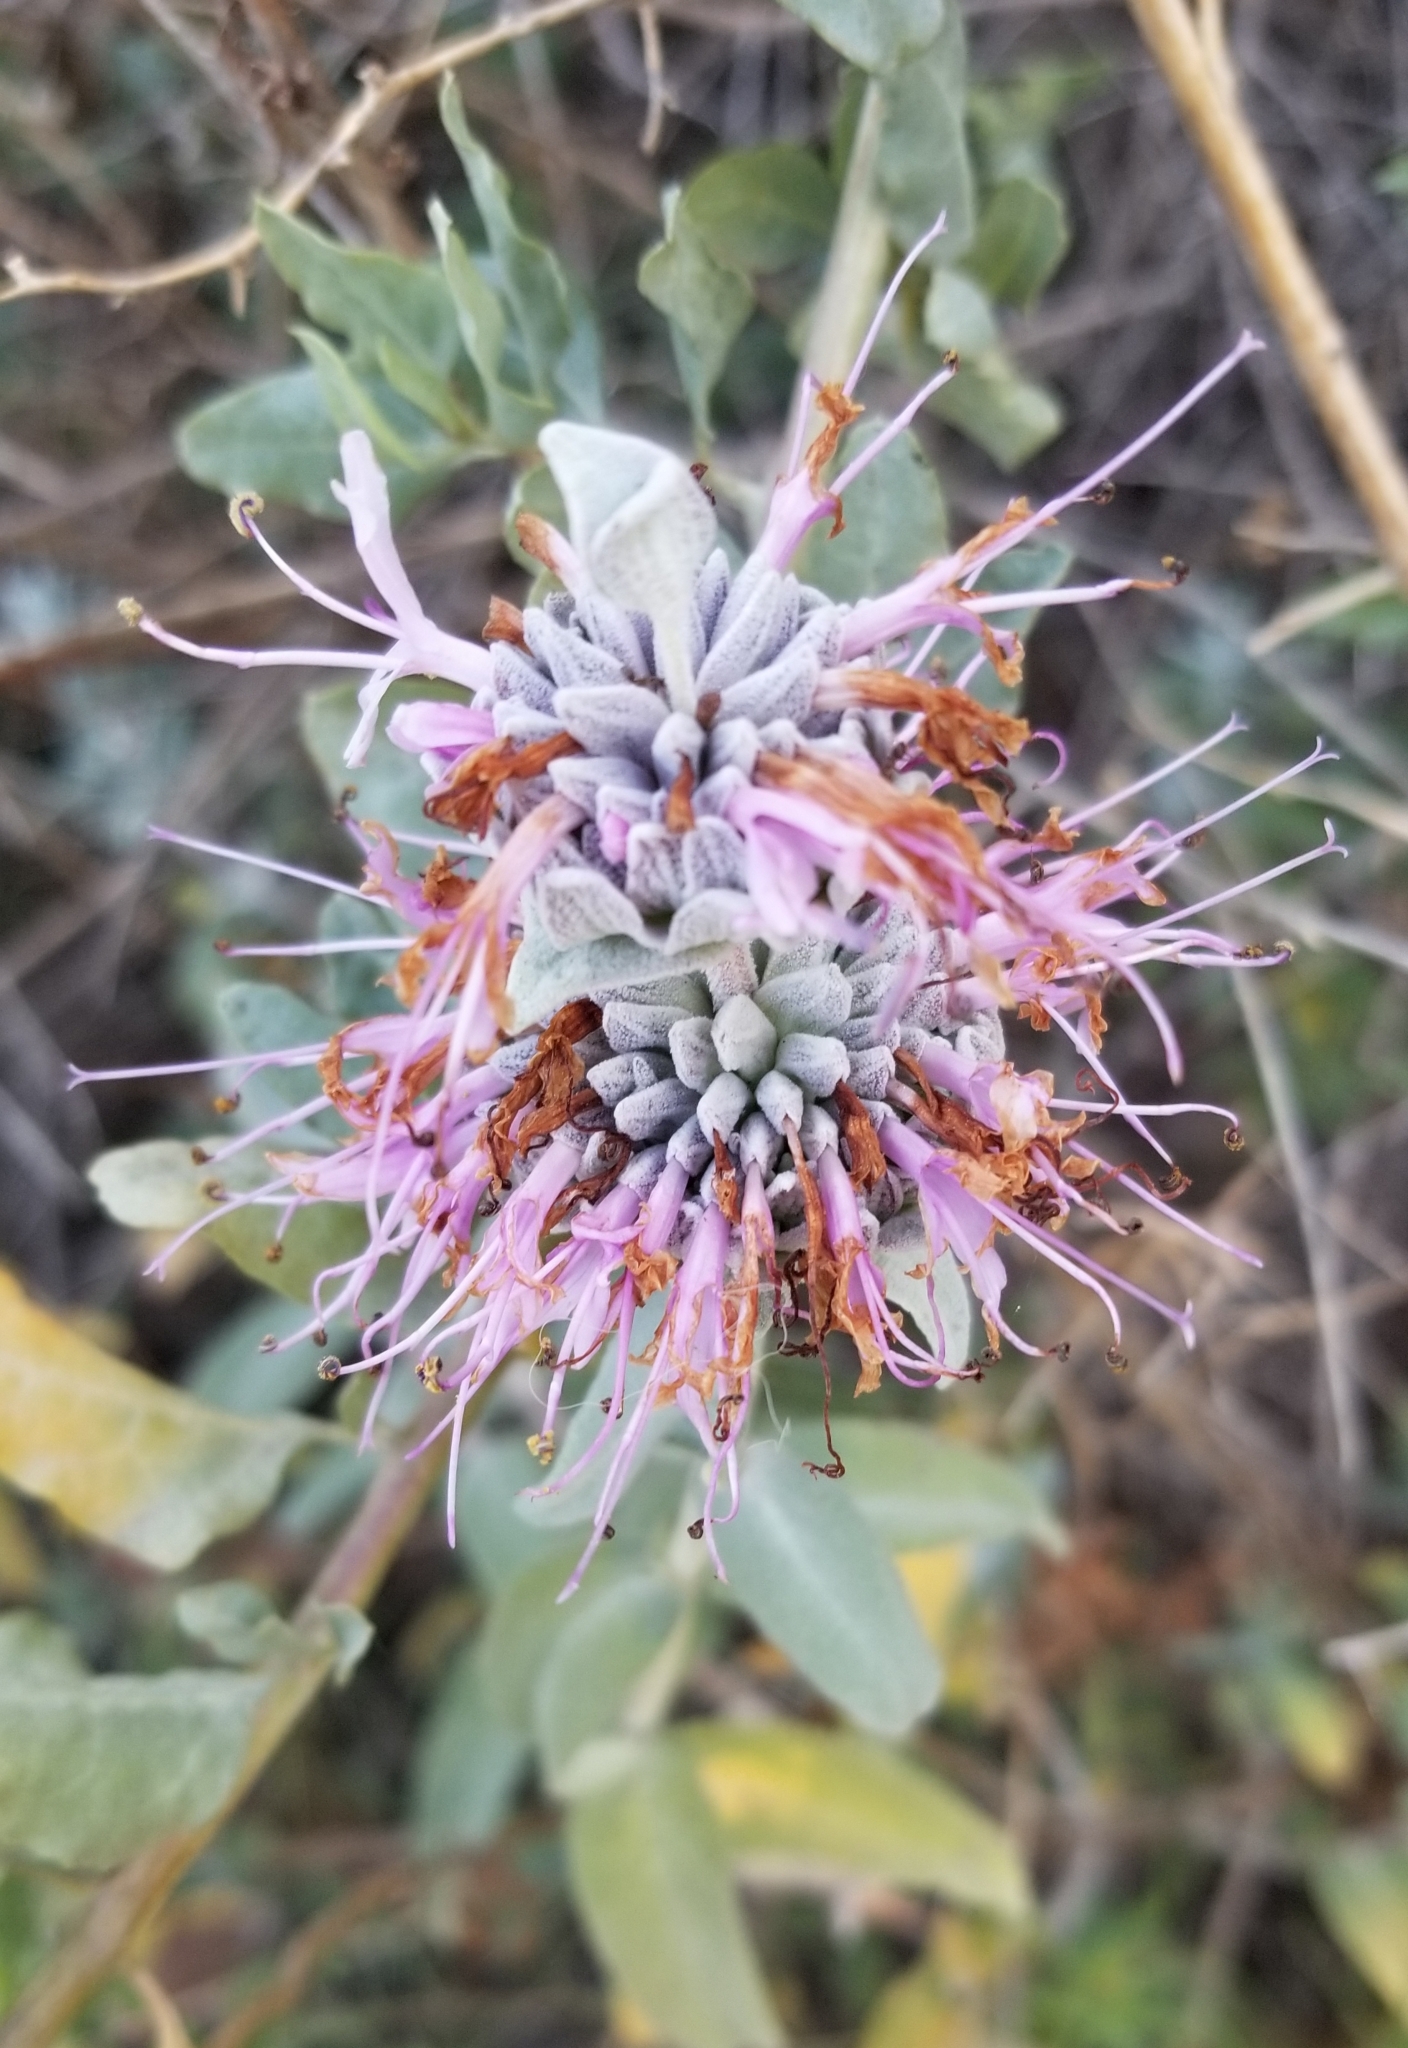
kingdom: Plantae
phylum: Tracheophyta
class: Magnoliopsida
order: Lamiales
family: Lamiaceae
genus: Salvia
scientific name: Salvia leucophylla
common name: Purple sage
